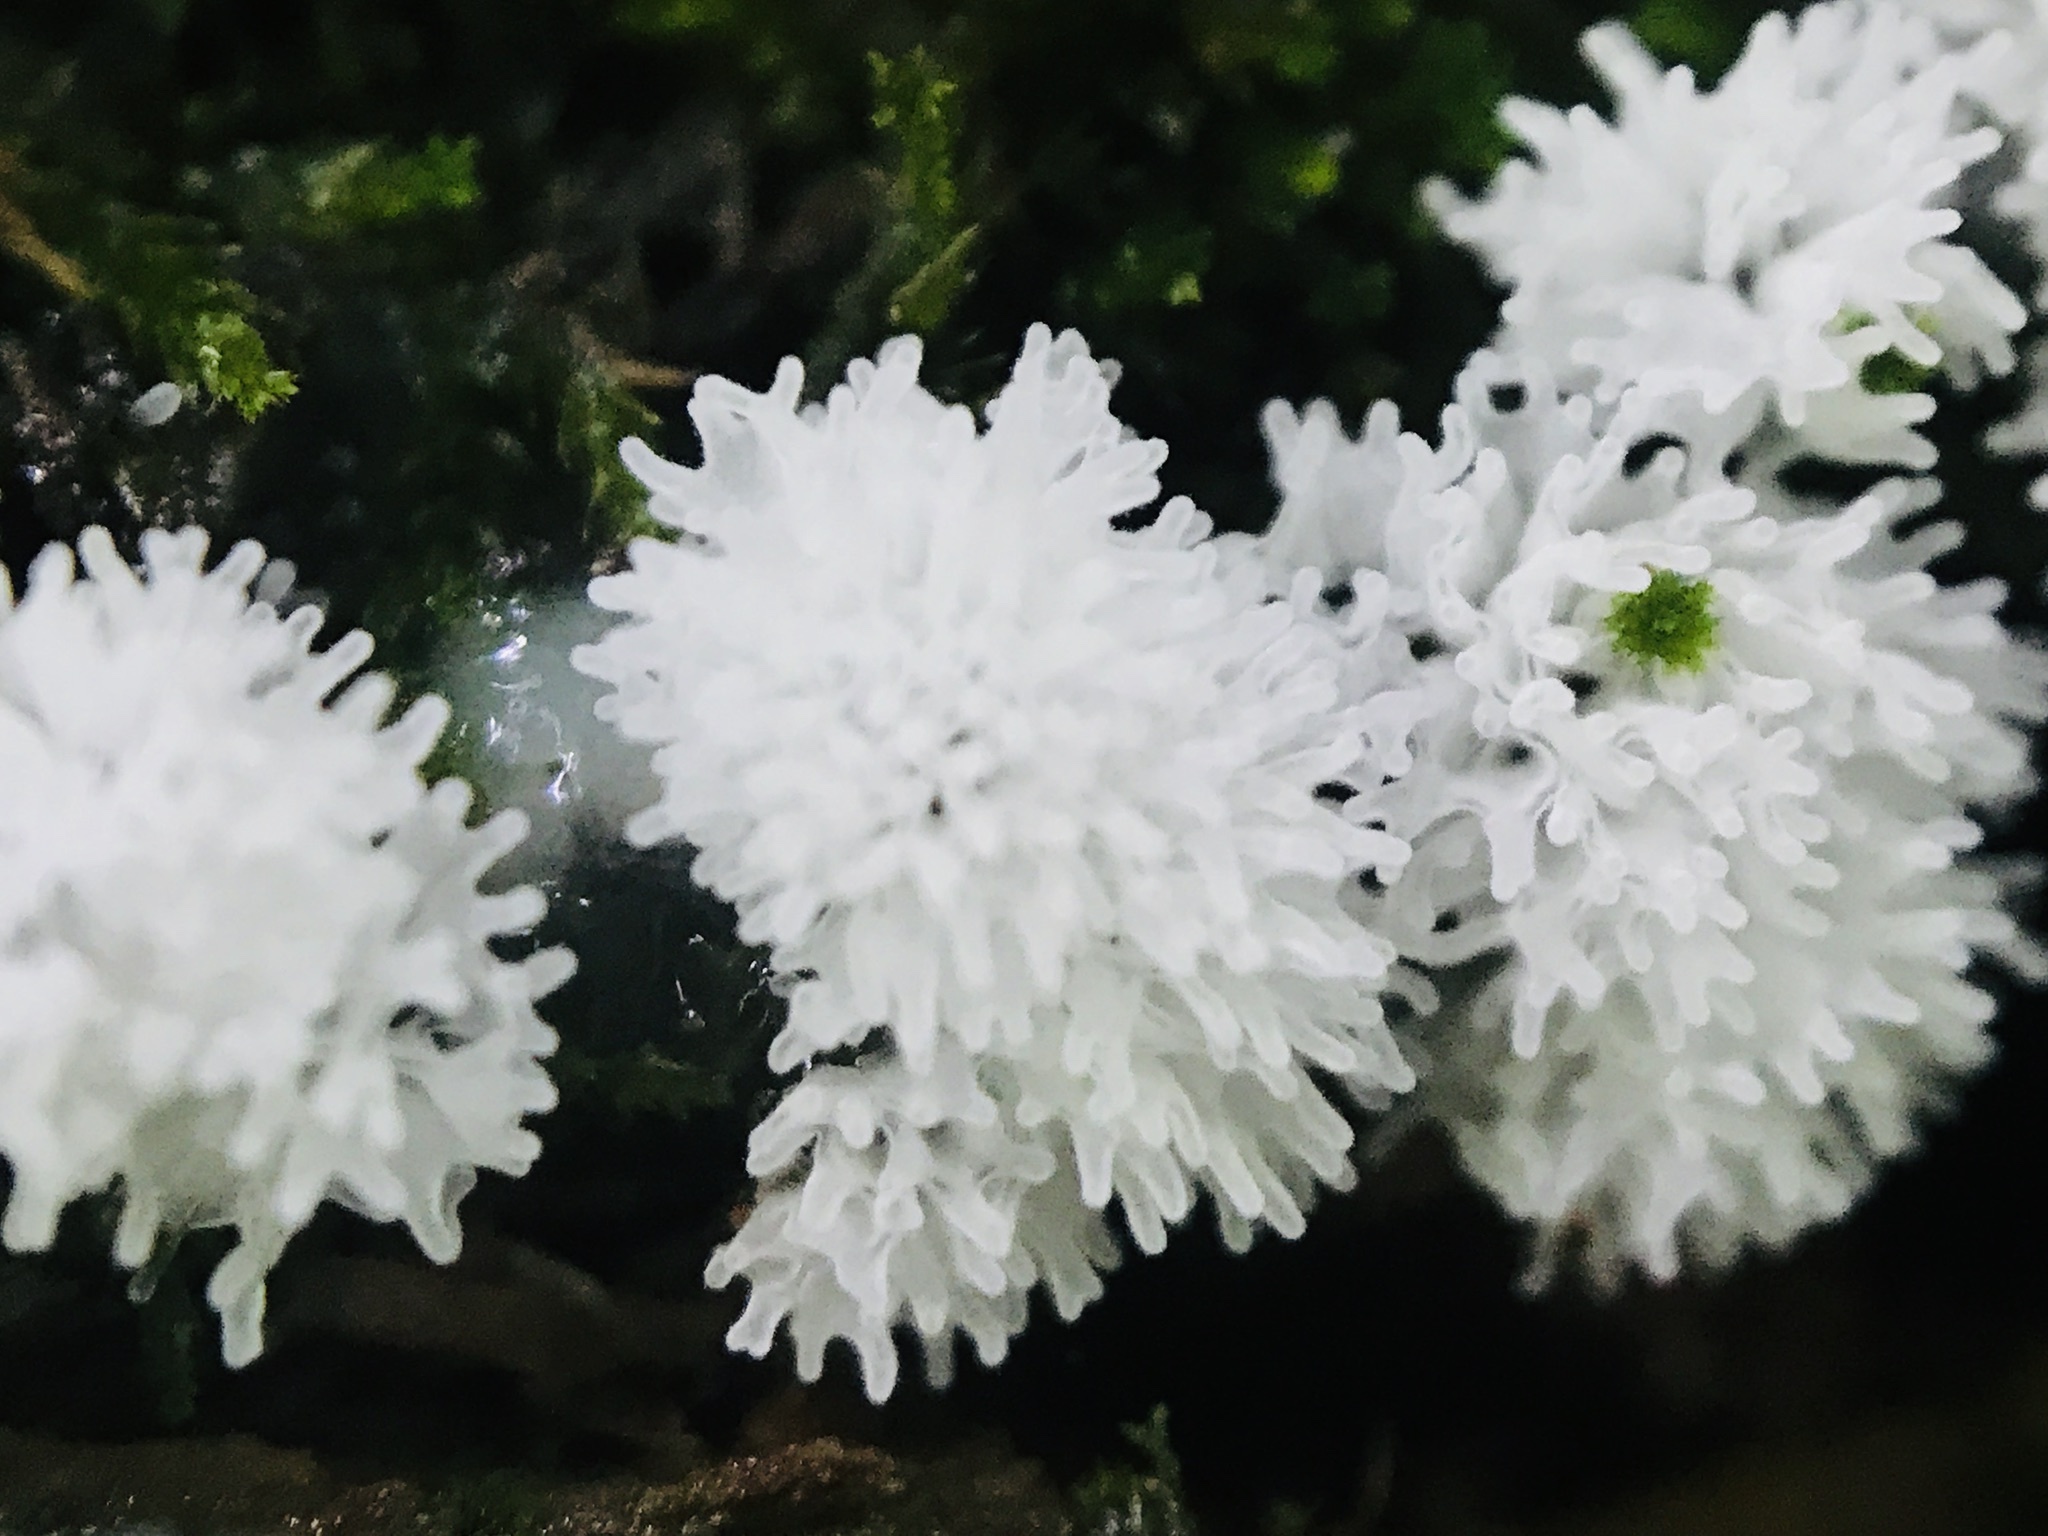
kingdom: Protozoa
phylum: Mycetozoa
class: Protosteliomycetes
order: Ceratiomyxales
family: Ceratiomyxaceae
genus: Ceratiomyxa
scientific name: Ceratiomyxa fruticulosa
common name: Honeycomb coral slime mold
